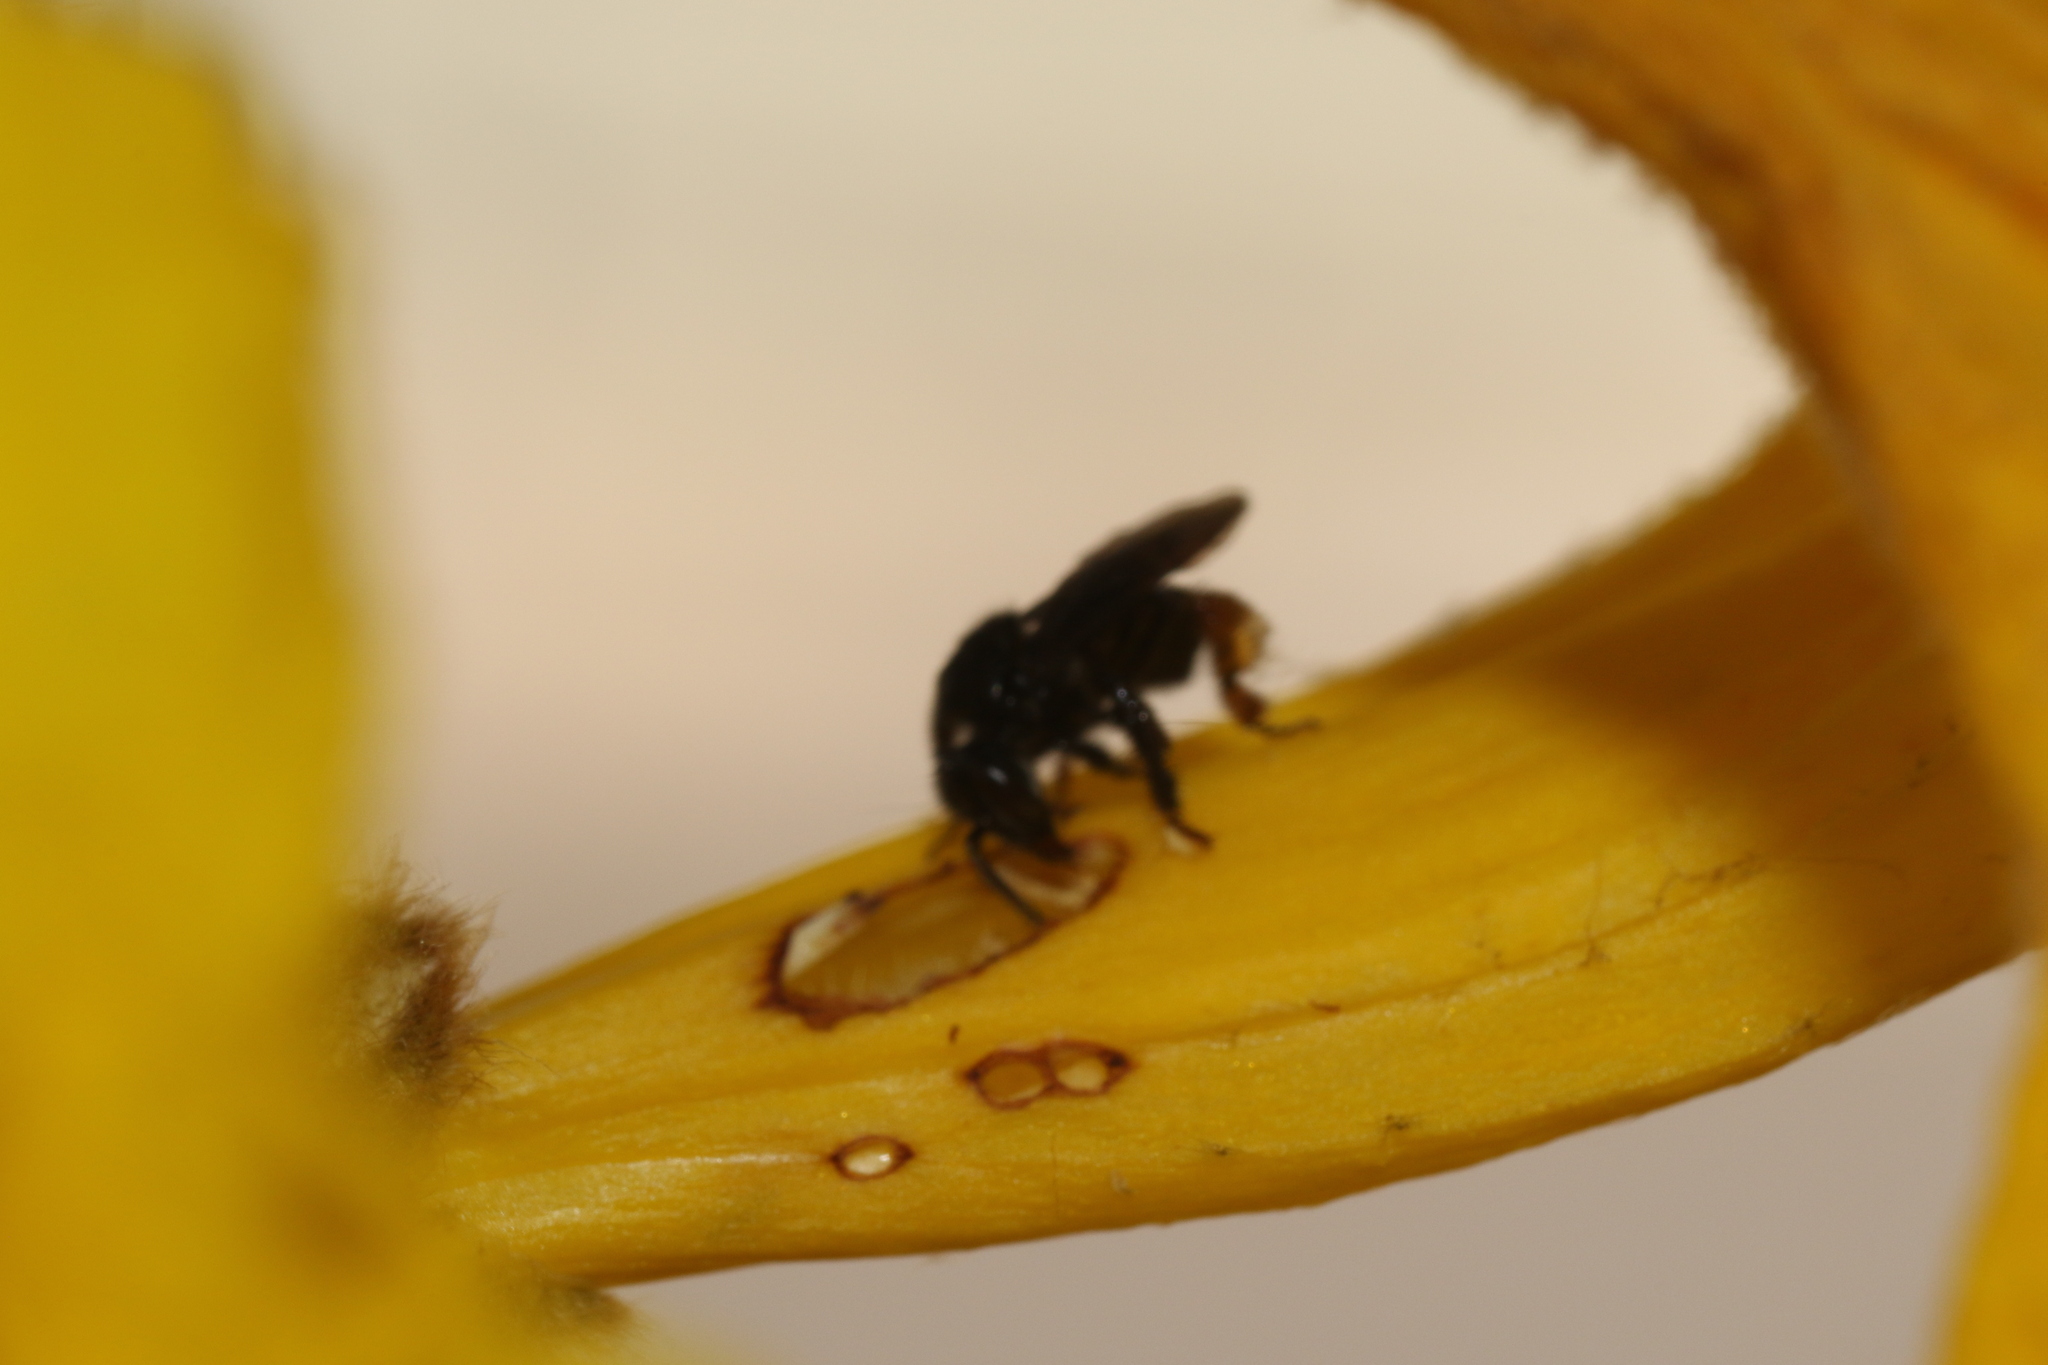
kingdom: Animalia
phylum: Arthropoda
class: Insecta
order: Hymenoptera
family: Apidae
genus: Trigona
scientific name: Trigona spinipes
